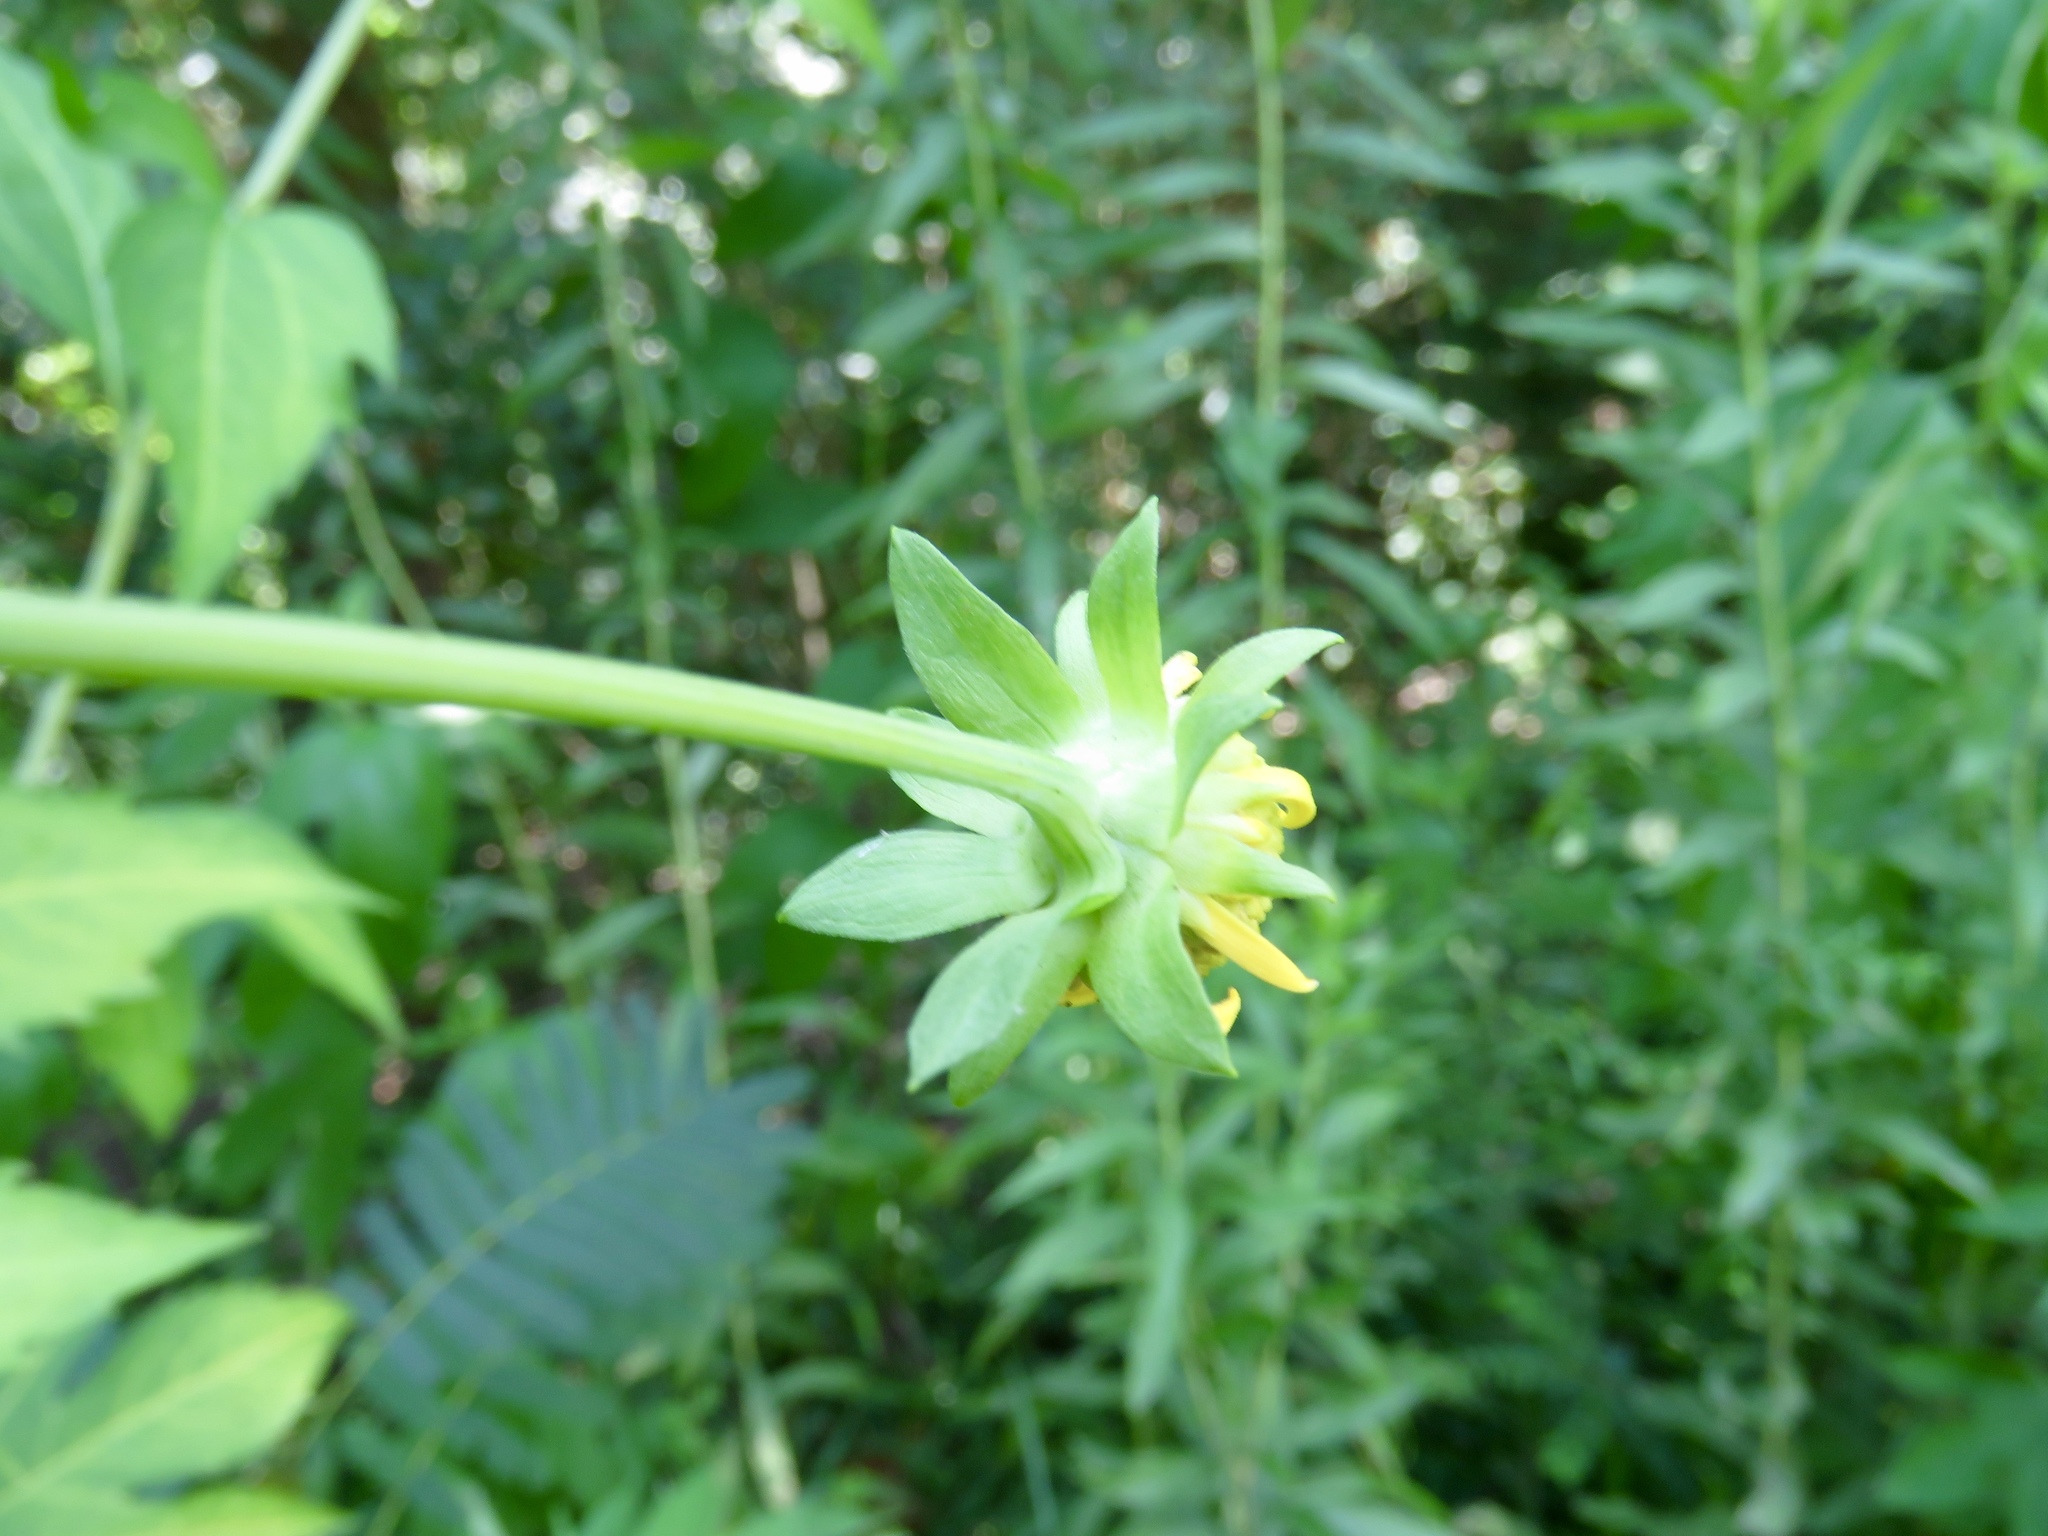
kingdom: Plantae
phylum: Tracheophyta
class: Magnoliopsida
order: Asterales
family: Asteraceae
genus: Rudbeckia
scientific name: Rudbeckia laciniata
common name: Coneflower
